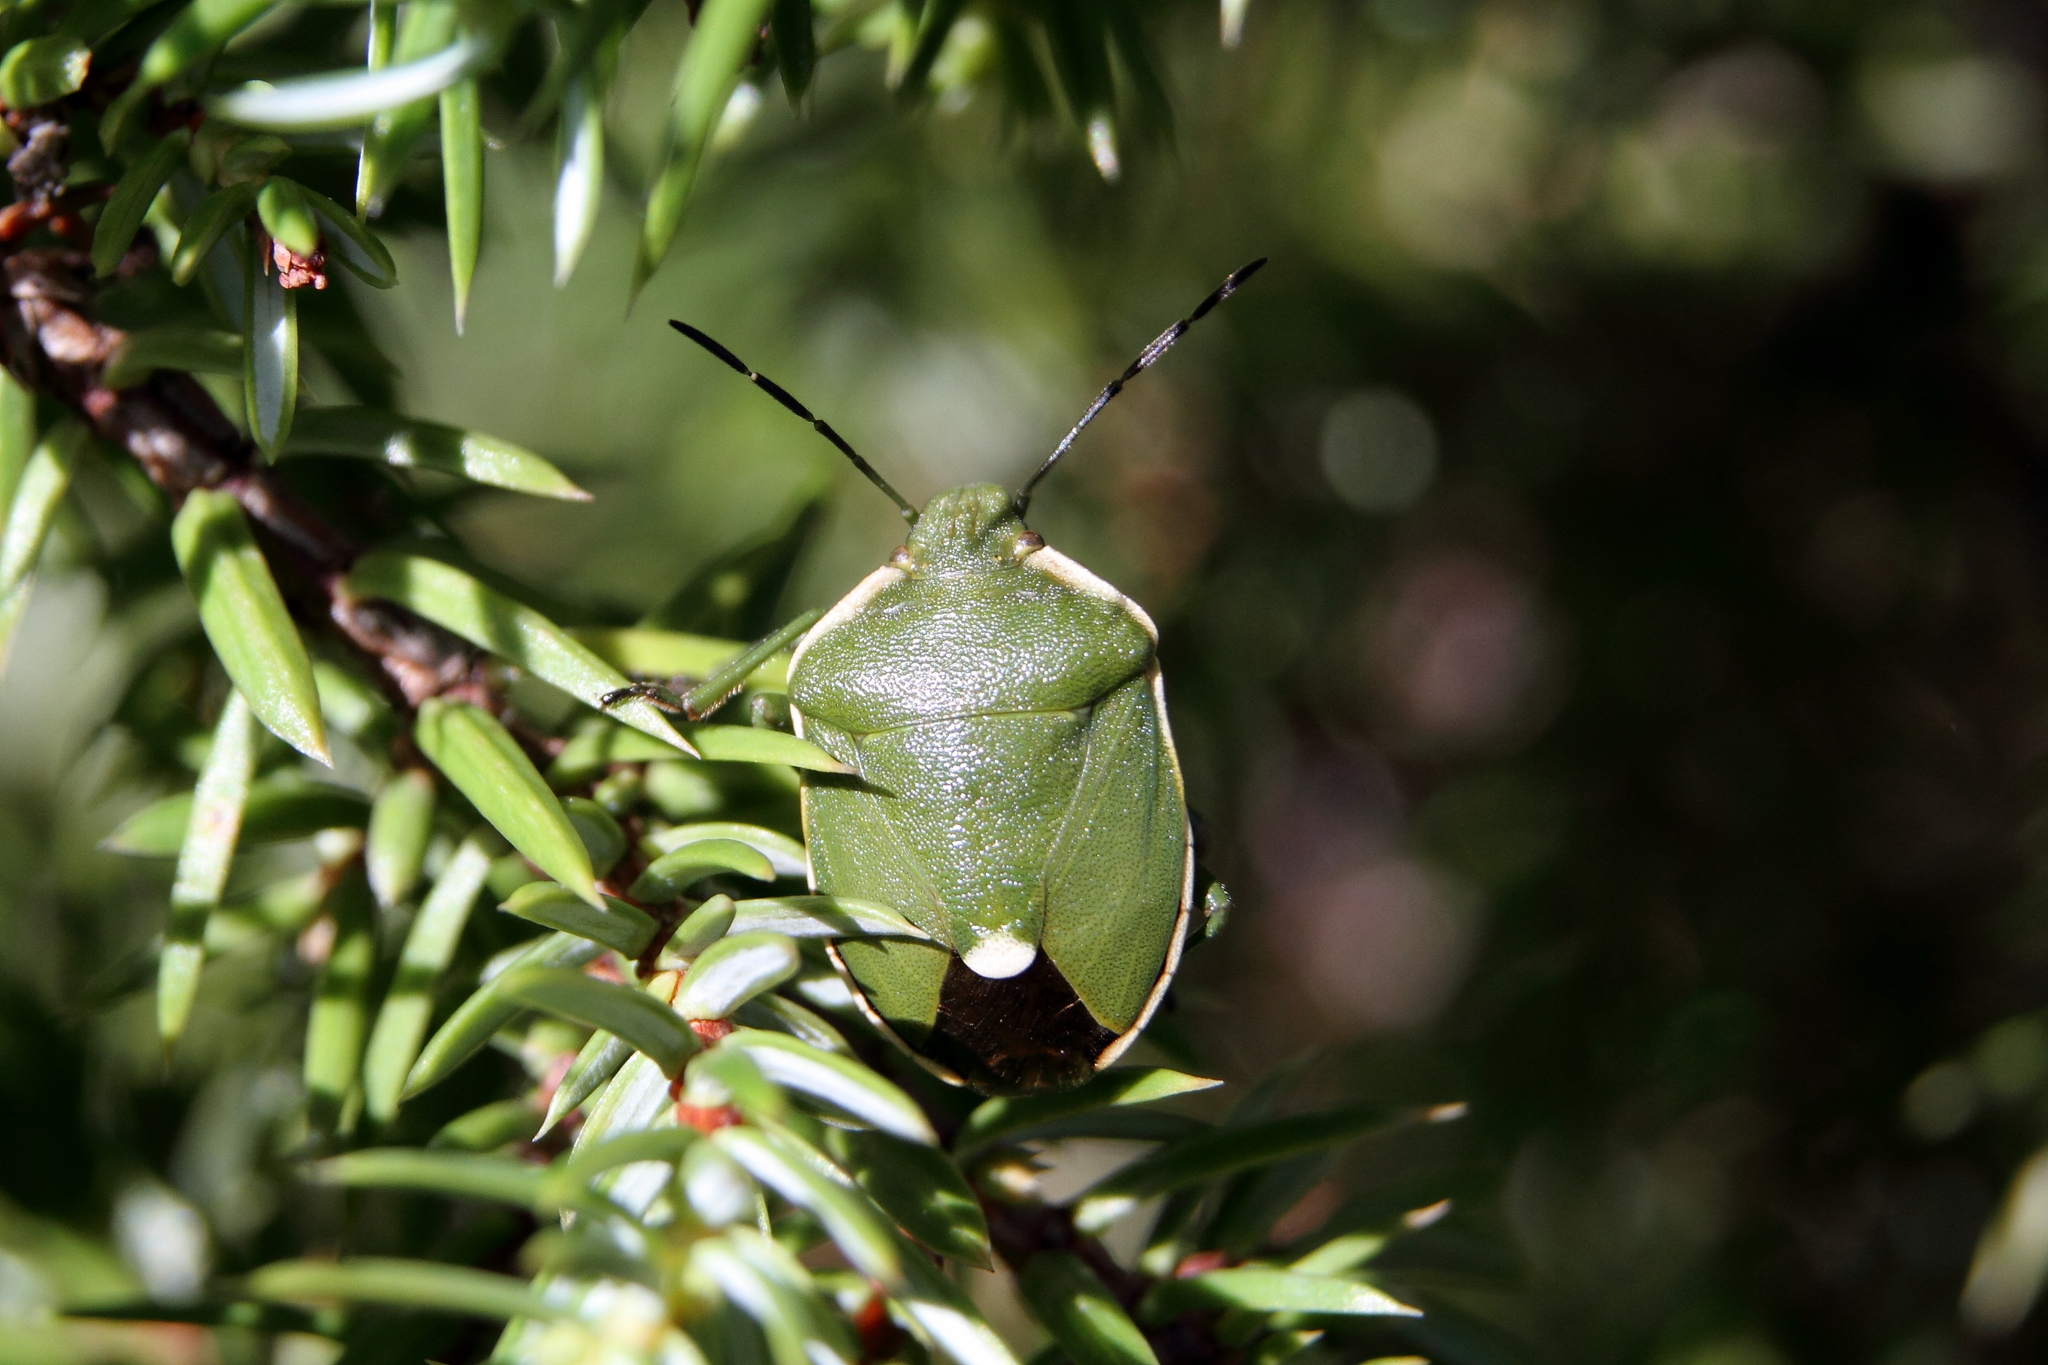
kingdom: Animalia
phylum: Arthropoda
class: Insecta
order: Hemiptera
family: Pentatomidae
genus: Chlorochroa
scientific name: Chlorochroa juniperina
